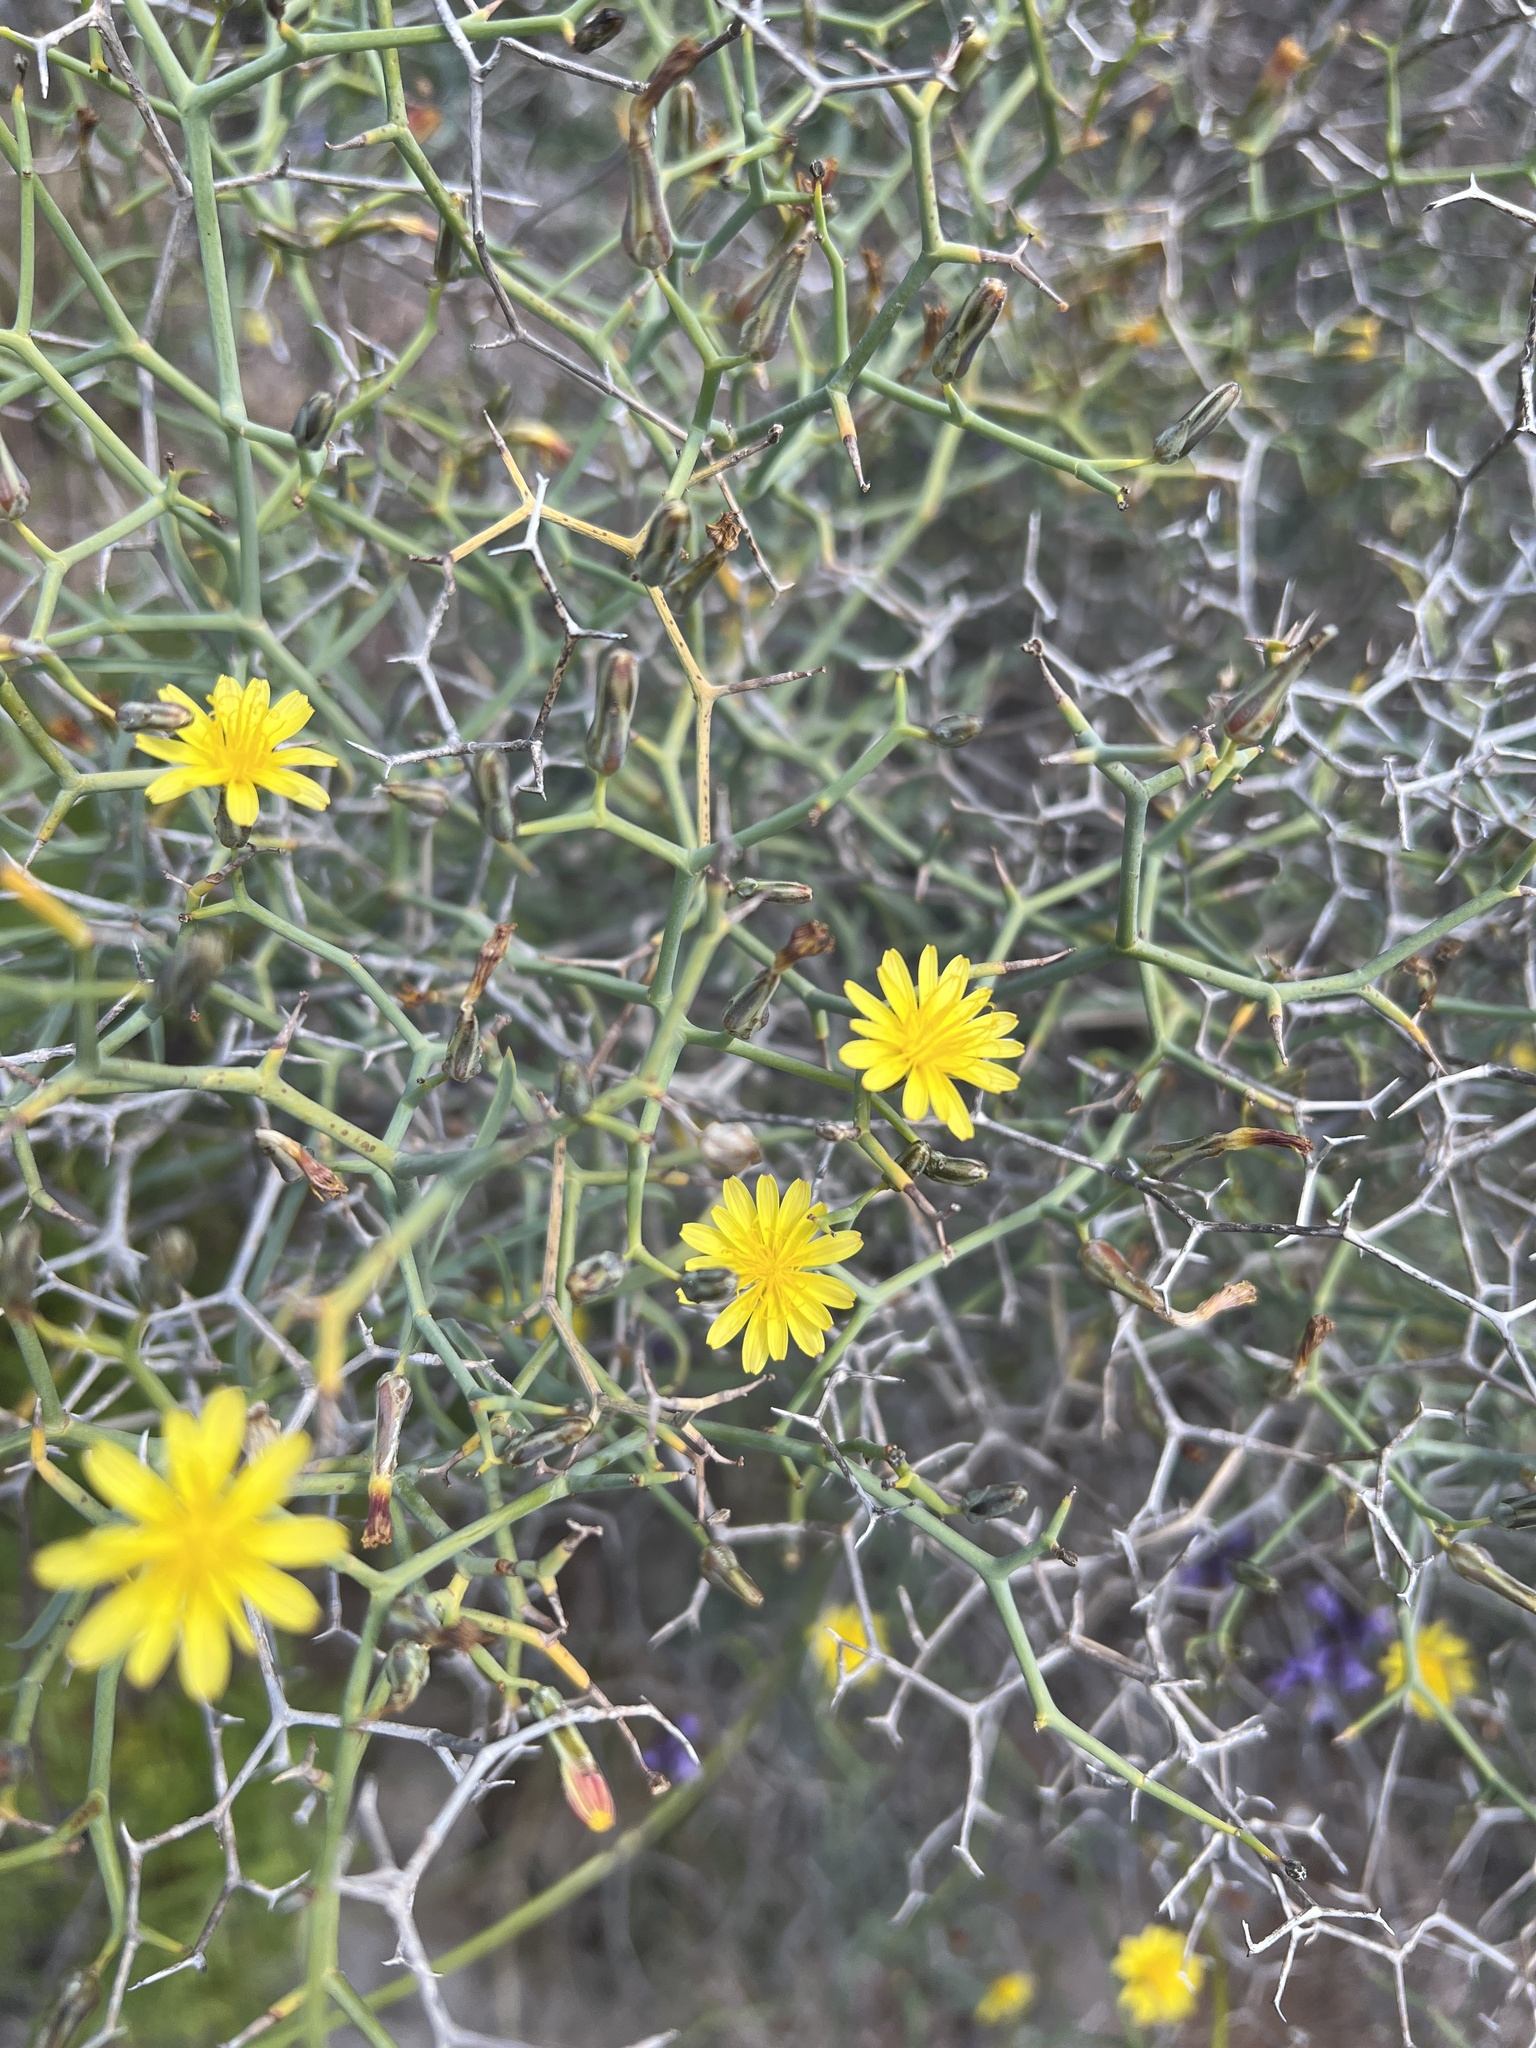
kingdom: Plantae
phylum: Tracheophyta
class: Magnoliopsida
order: Asterales
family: Asteraceae
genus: Launaea
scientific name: Launaea arborescens
